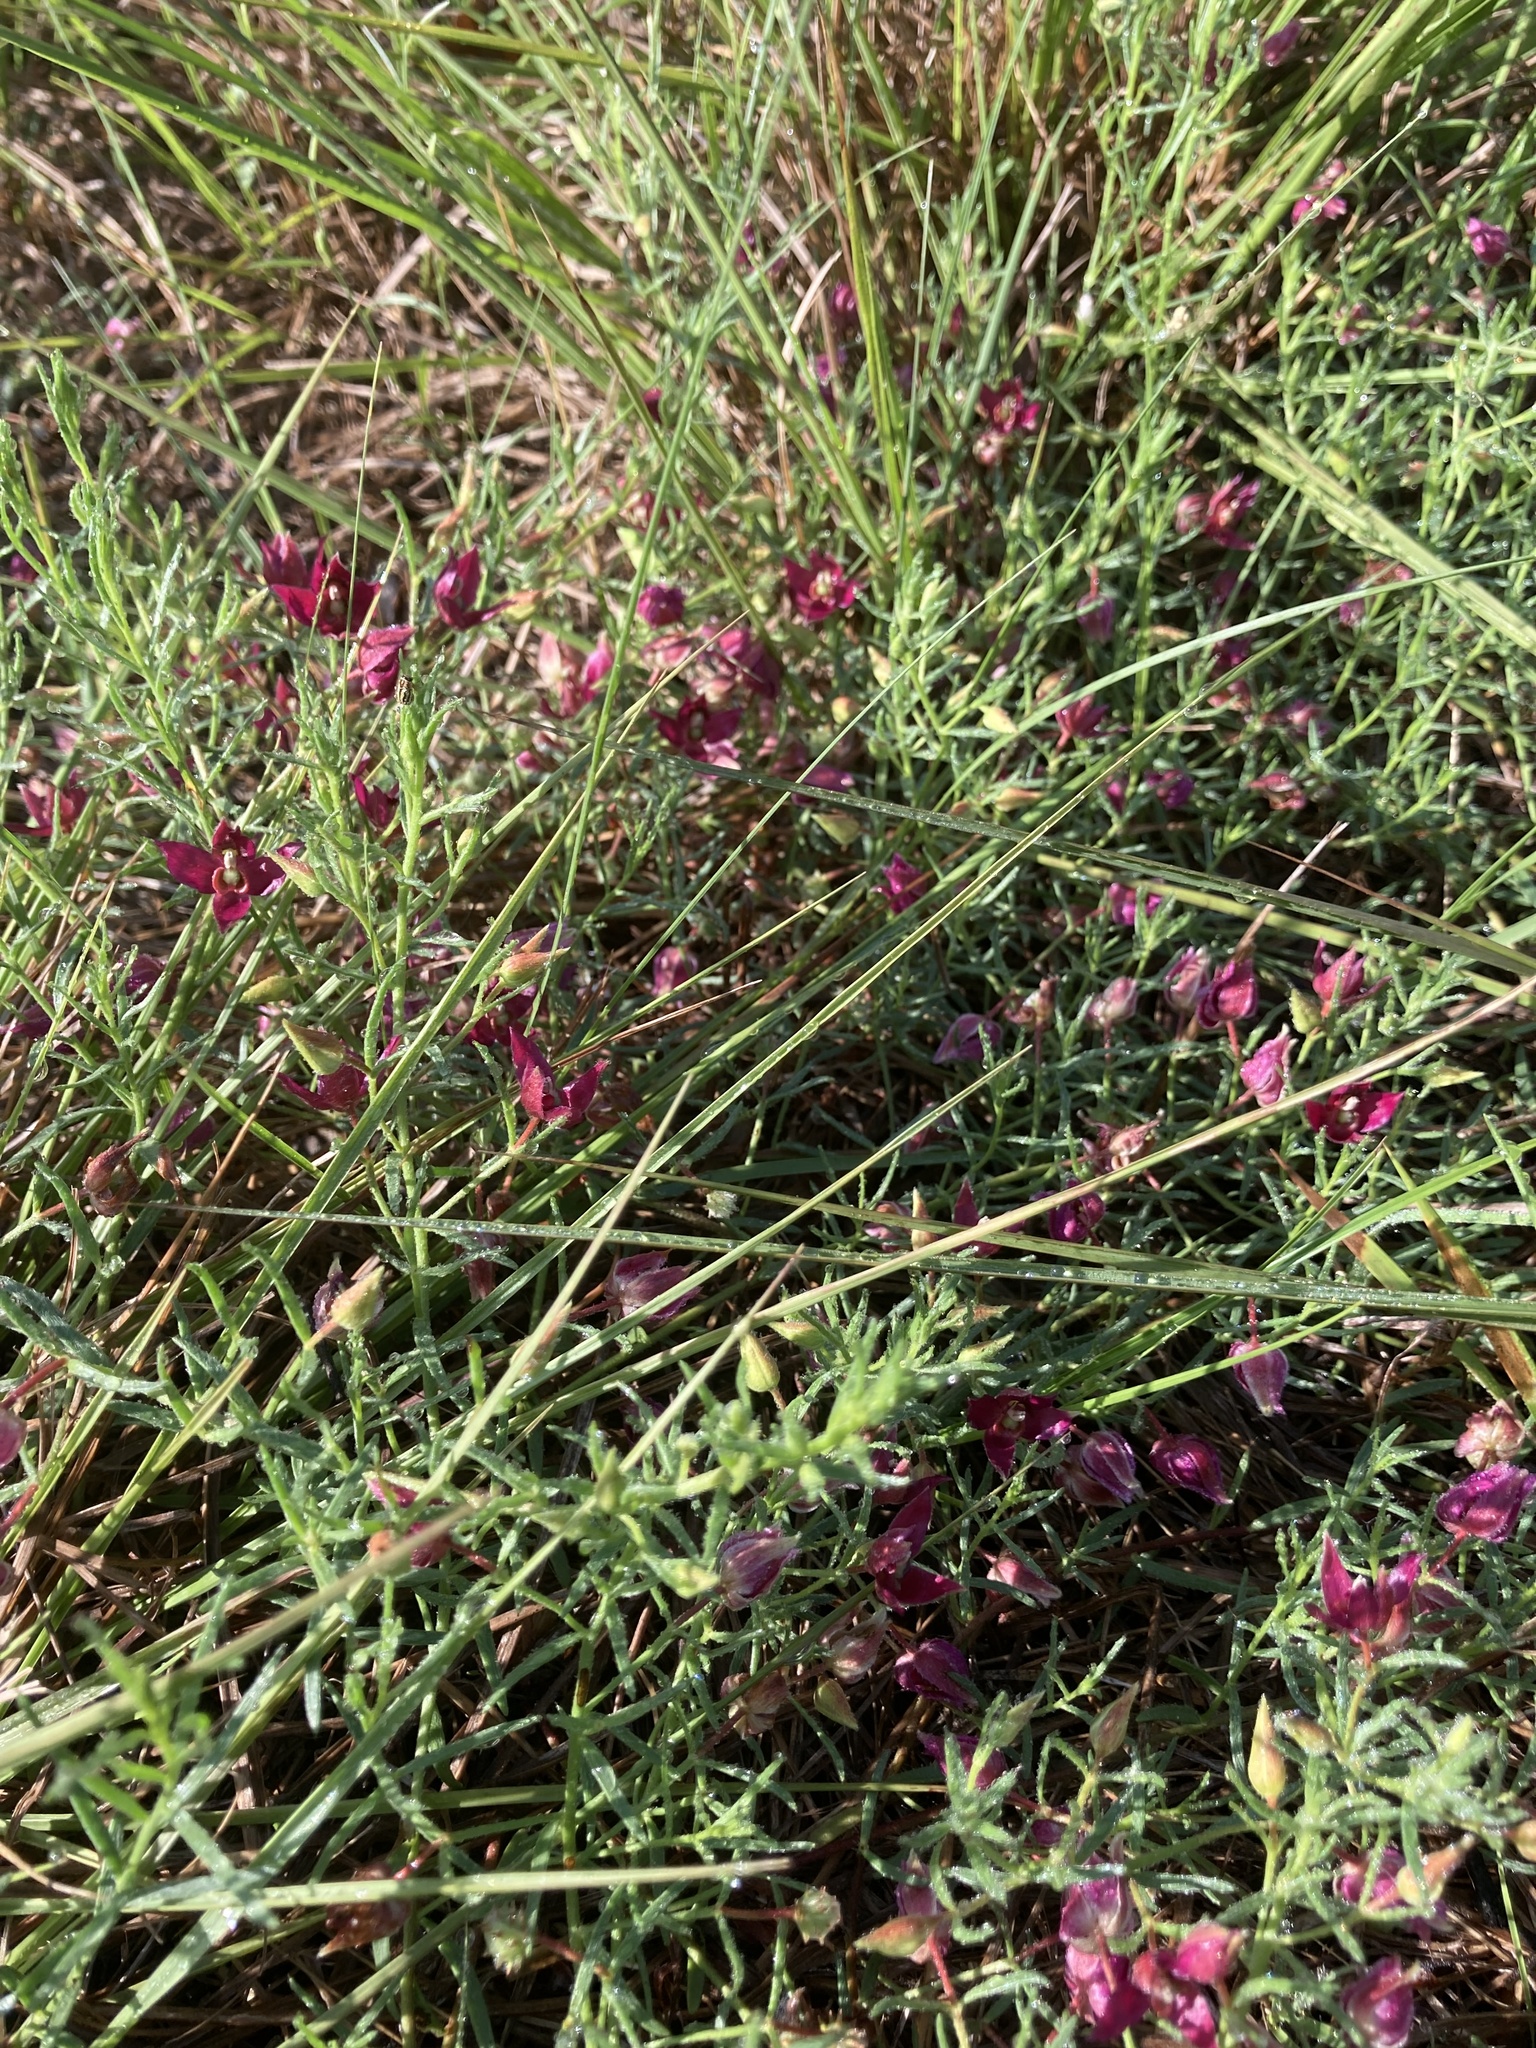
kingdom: Plantae
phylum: Tracheophyta
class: Magnoliopsida
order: Zygophyllales
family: Krameriaceae
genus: Krameria
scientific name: Krameria lanceolata
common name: Ratany
